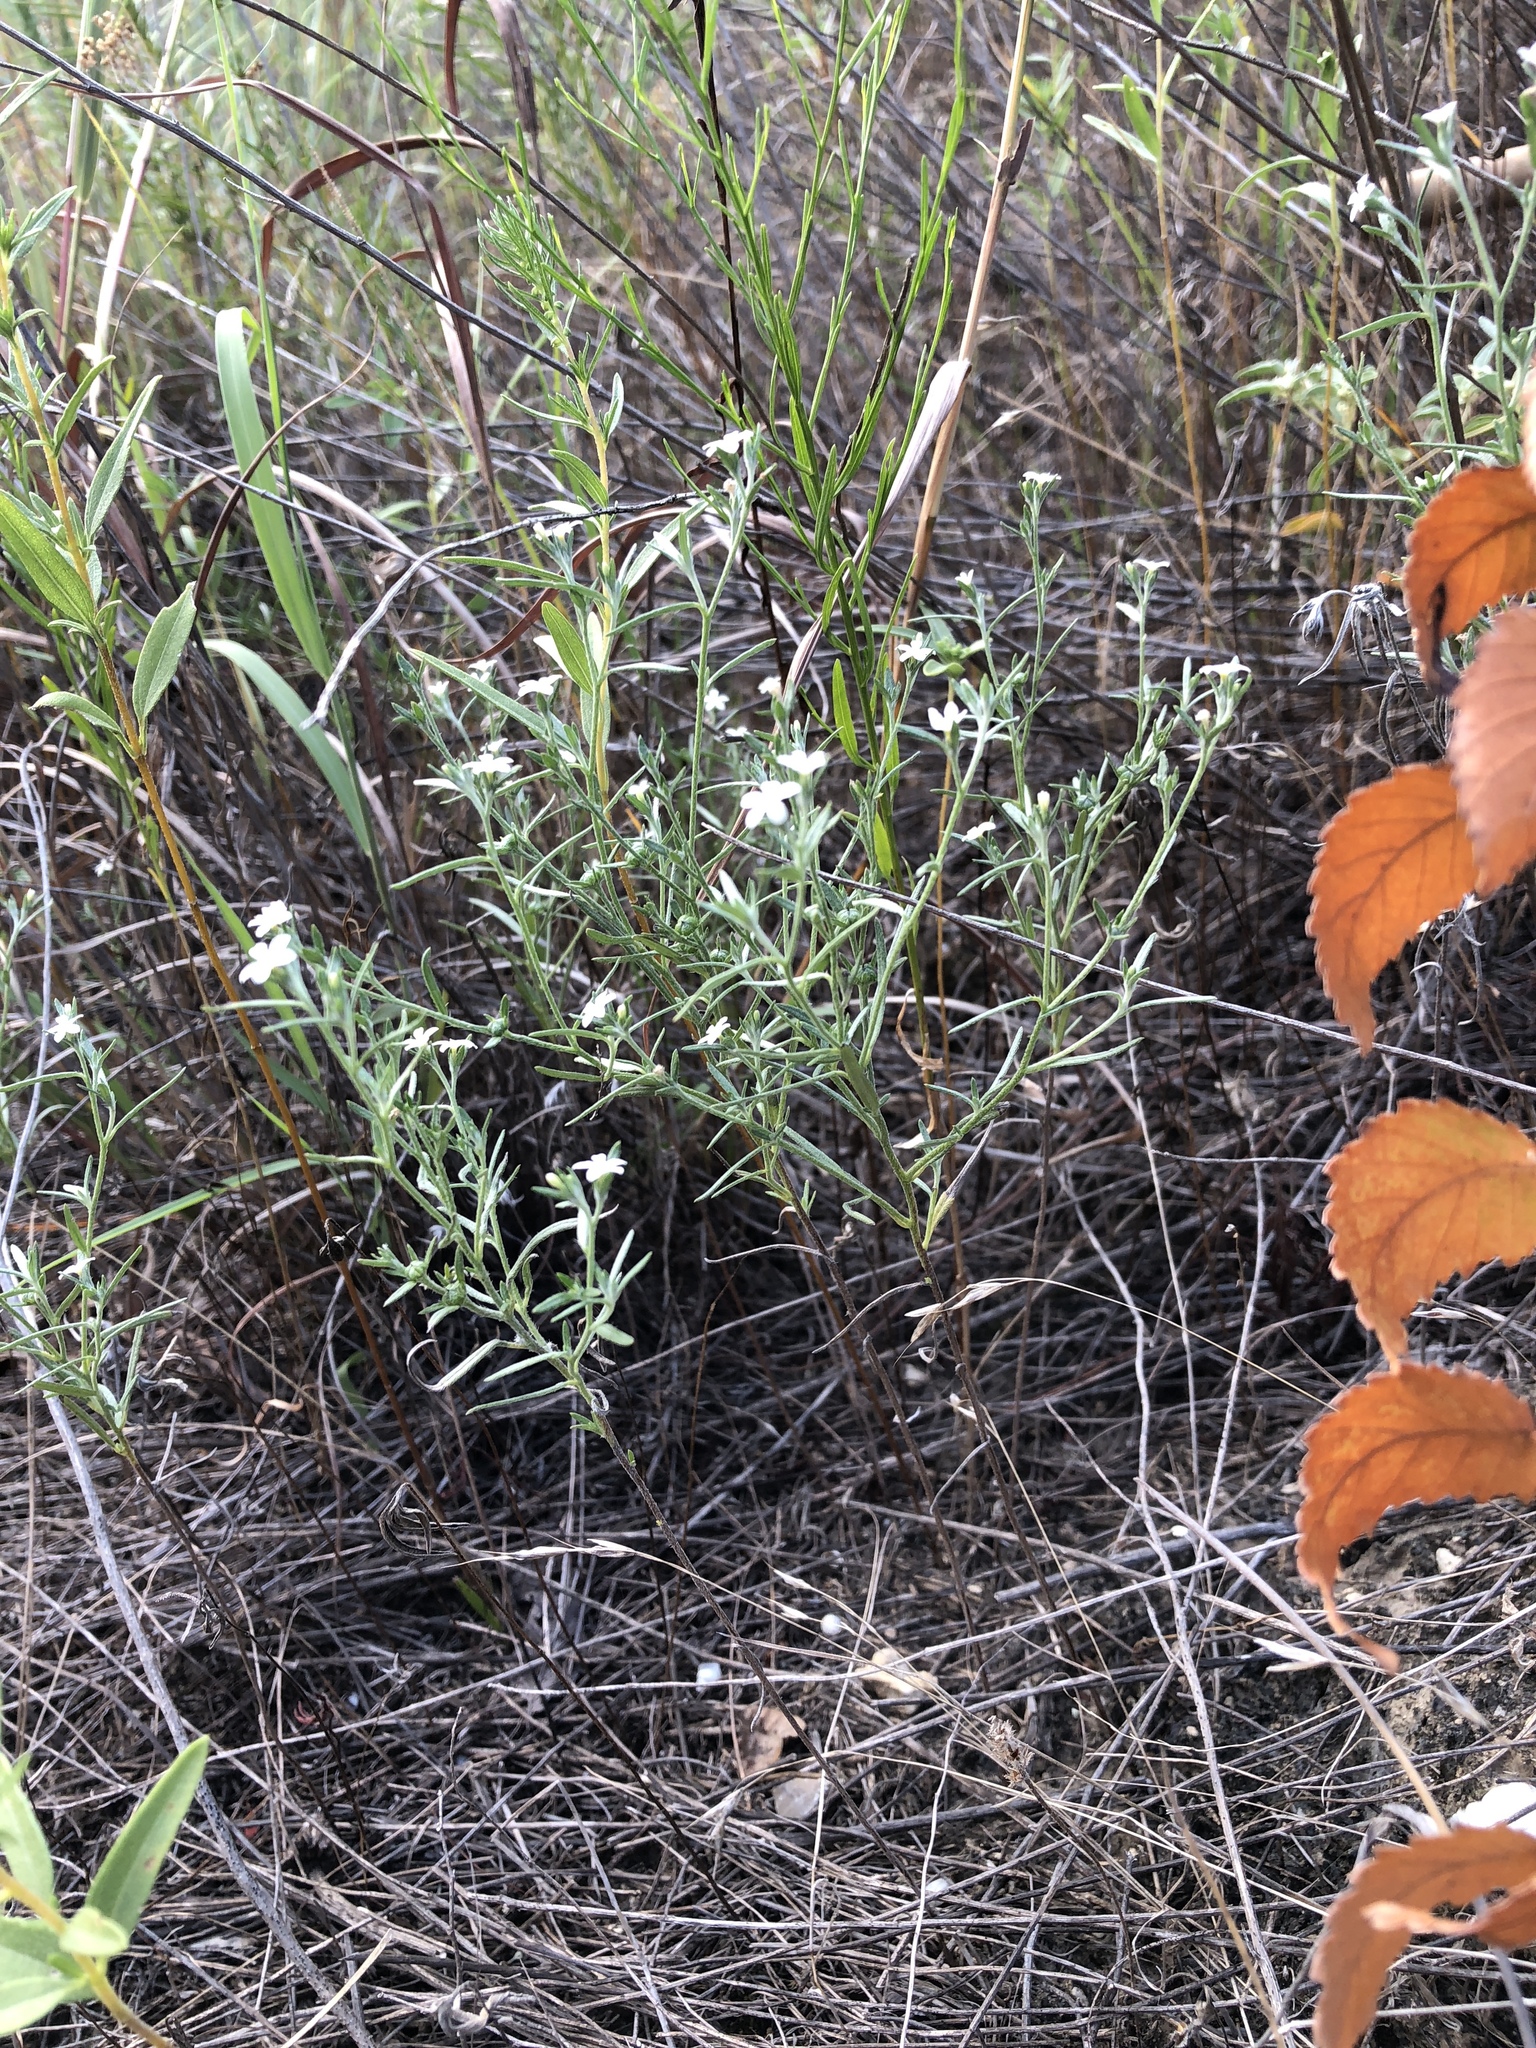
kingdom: Plantae
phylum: Tracheophyta
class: Magnoliopsida
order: Boraginales
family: Heliotropiaceae
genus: Euploca
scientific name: Euploca tenella
